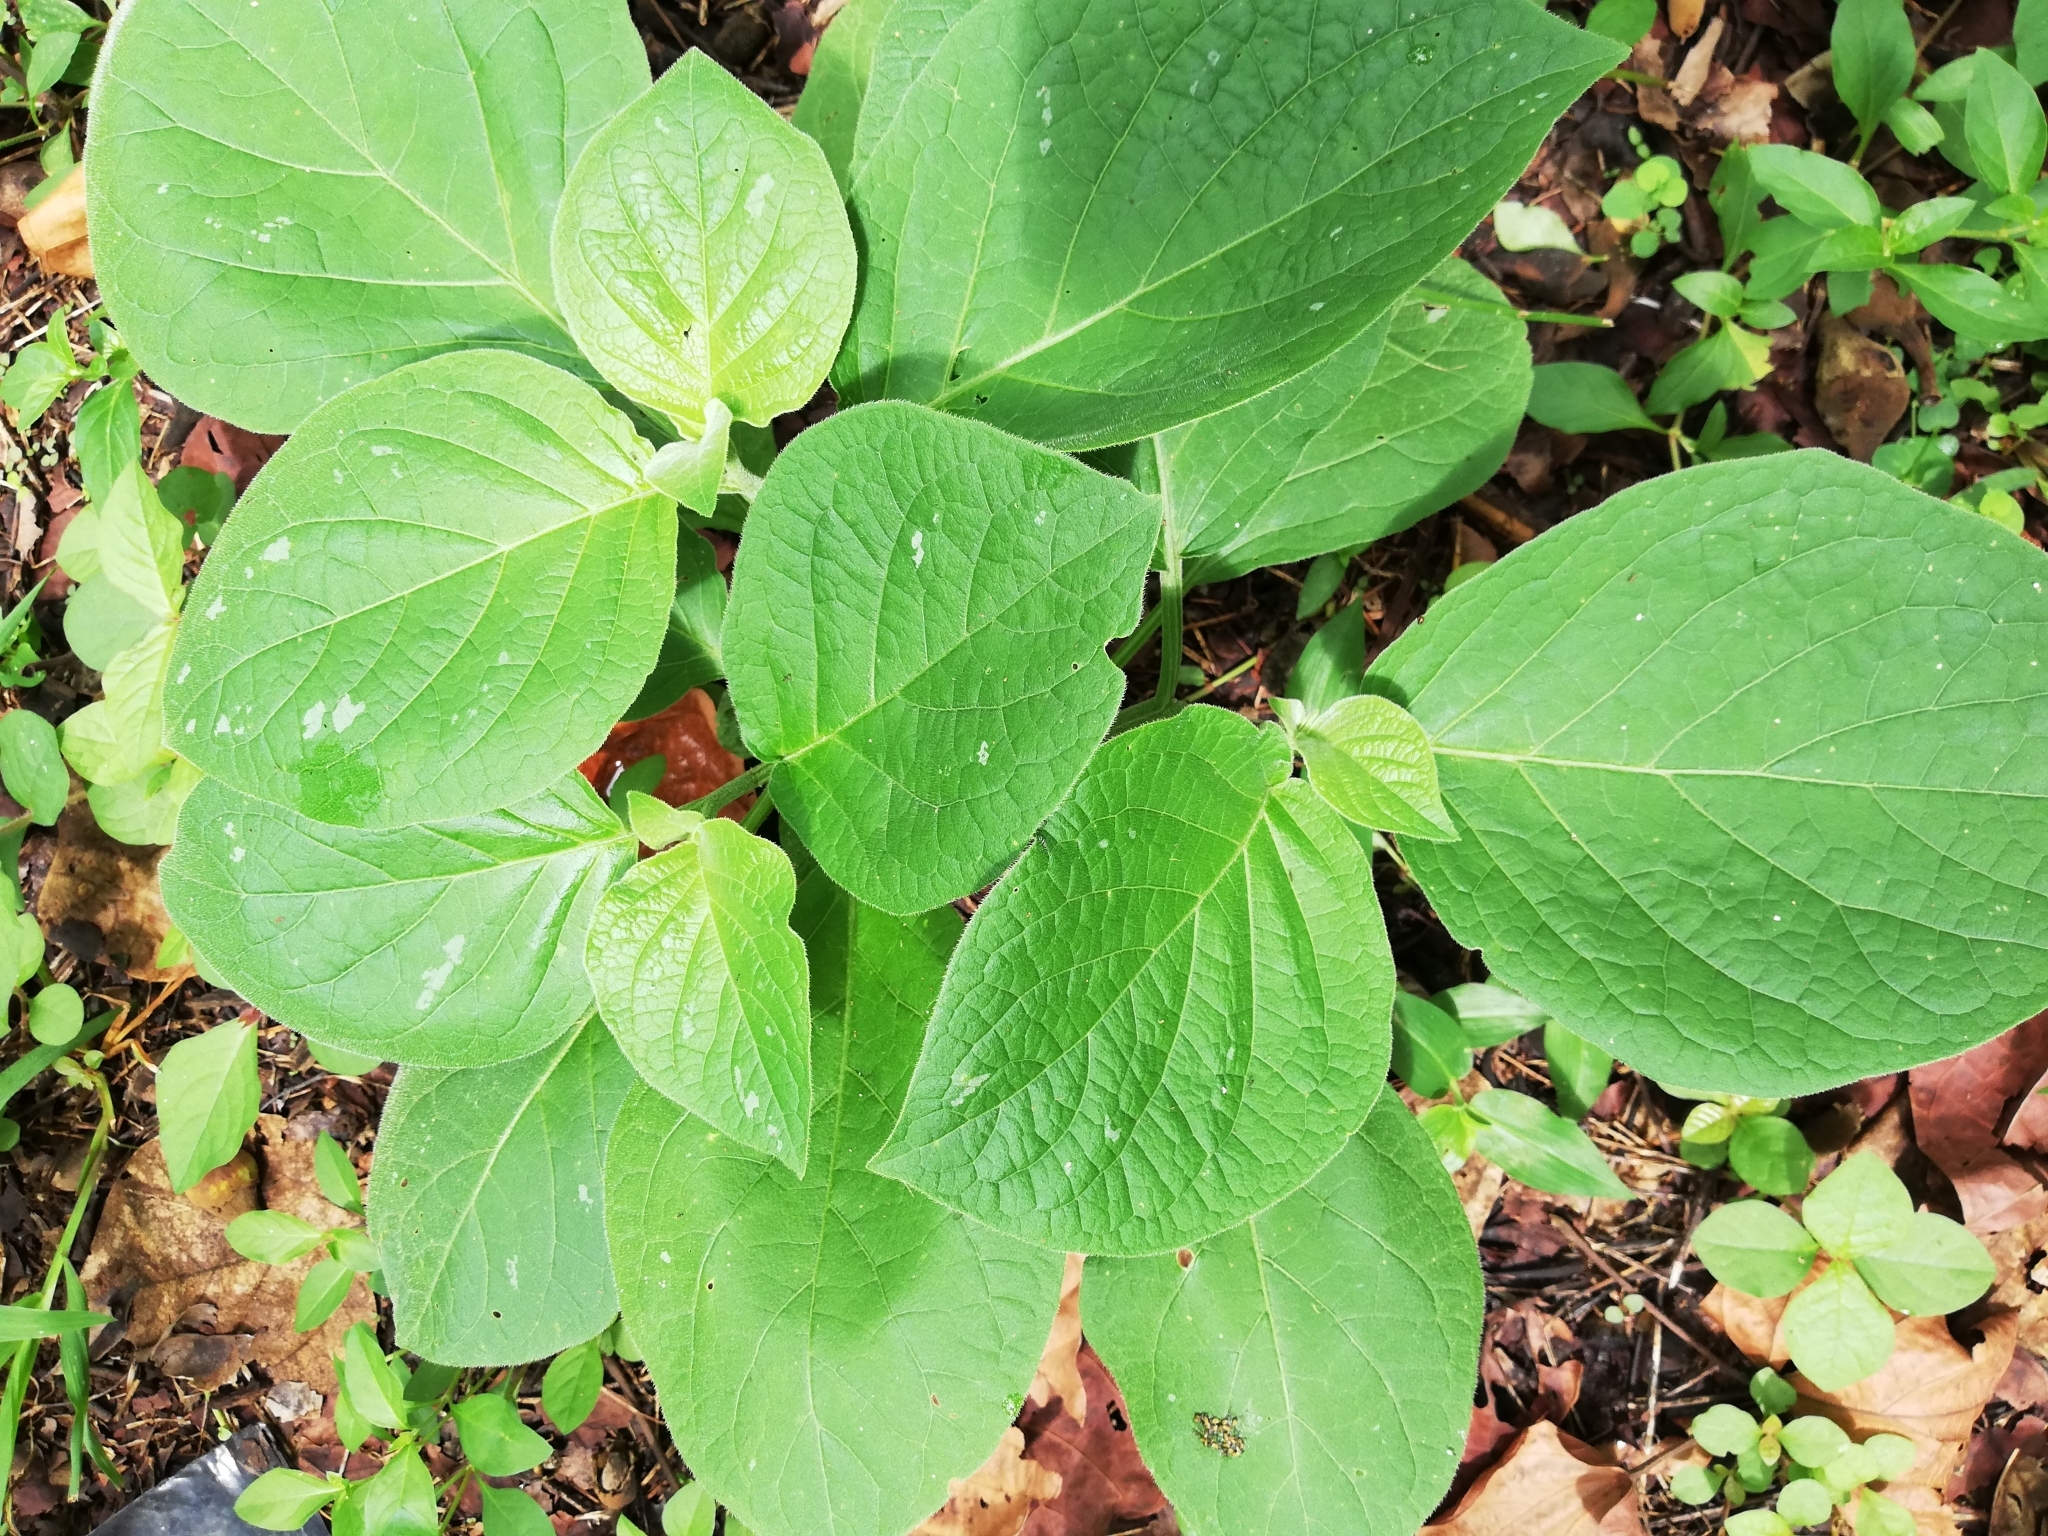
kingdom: Plantae
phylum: Tracheophyta
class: Magnoliopsida
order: Piperales
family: Piperaceae
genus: Piper
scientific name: Piper auritum
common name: Vera cruz pepper
